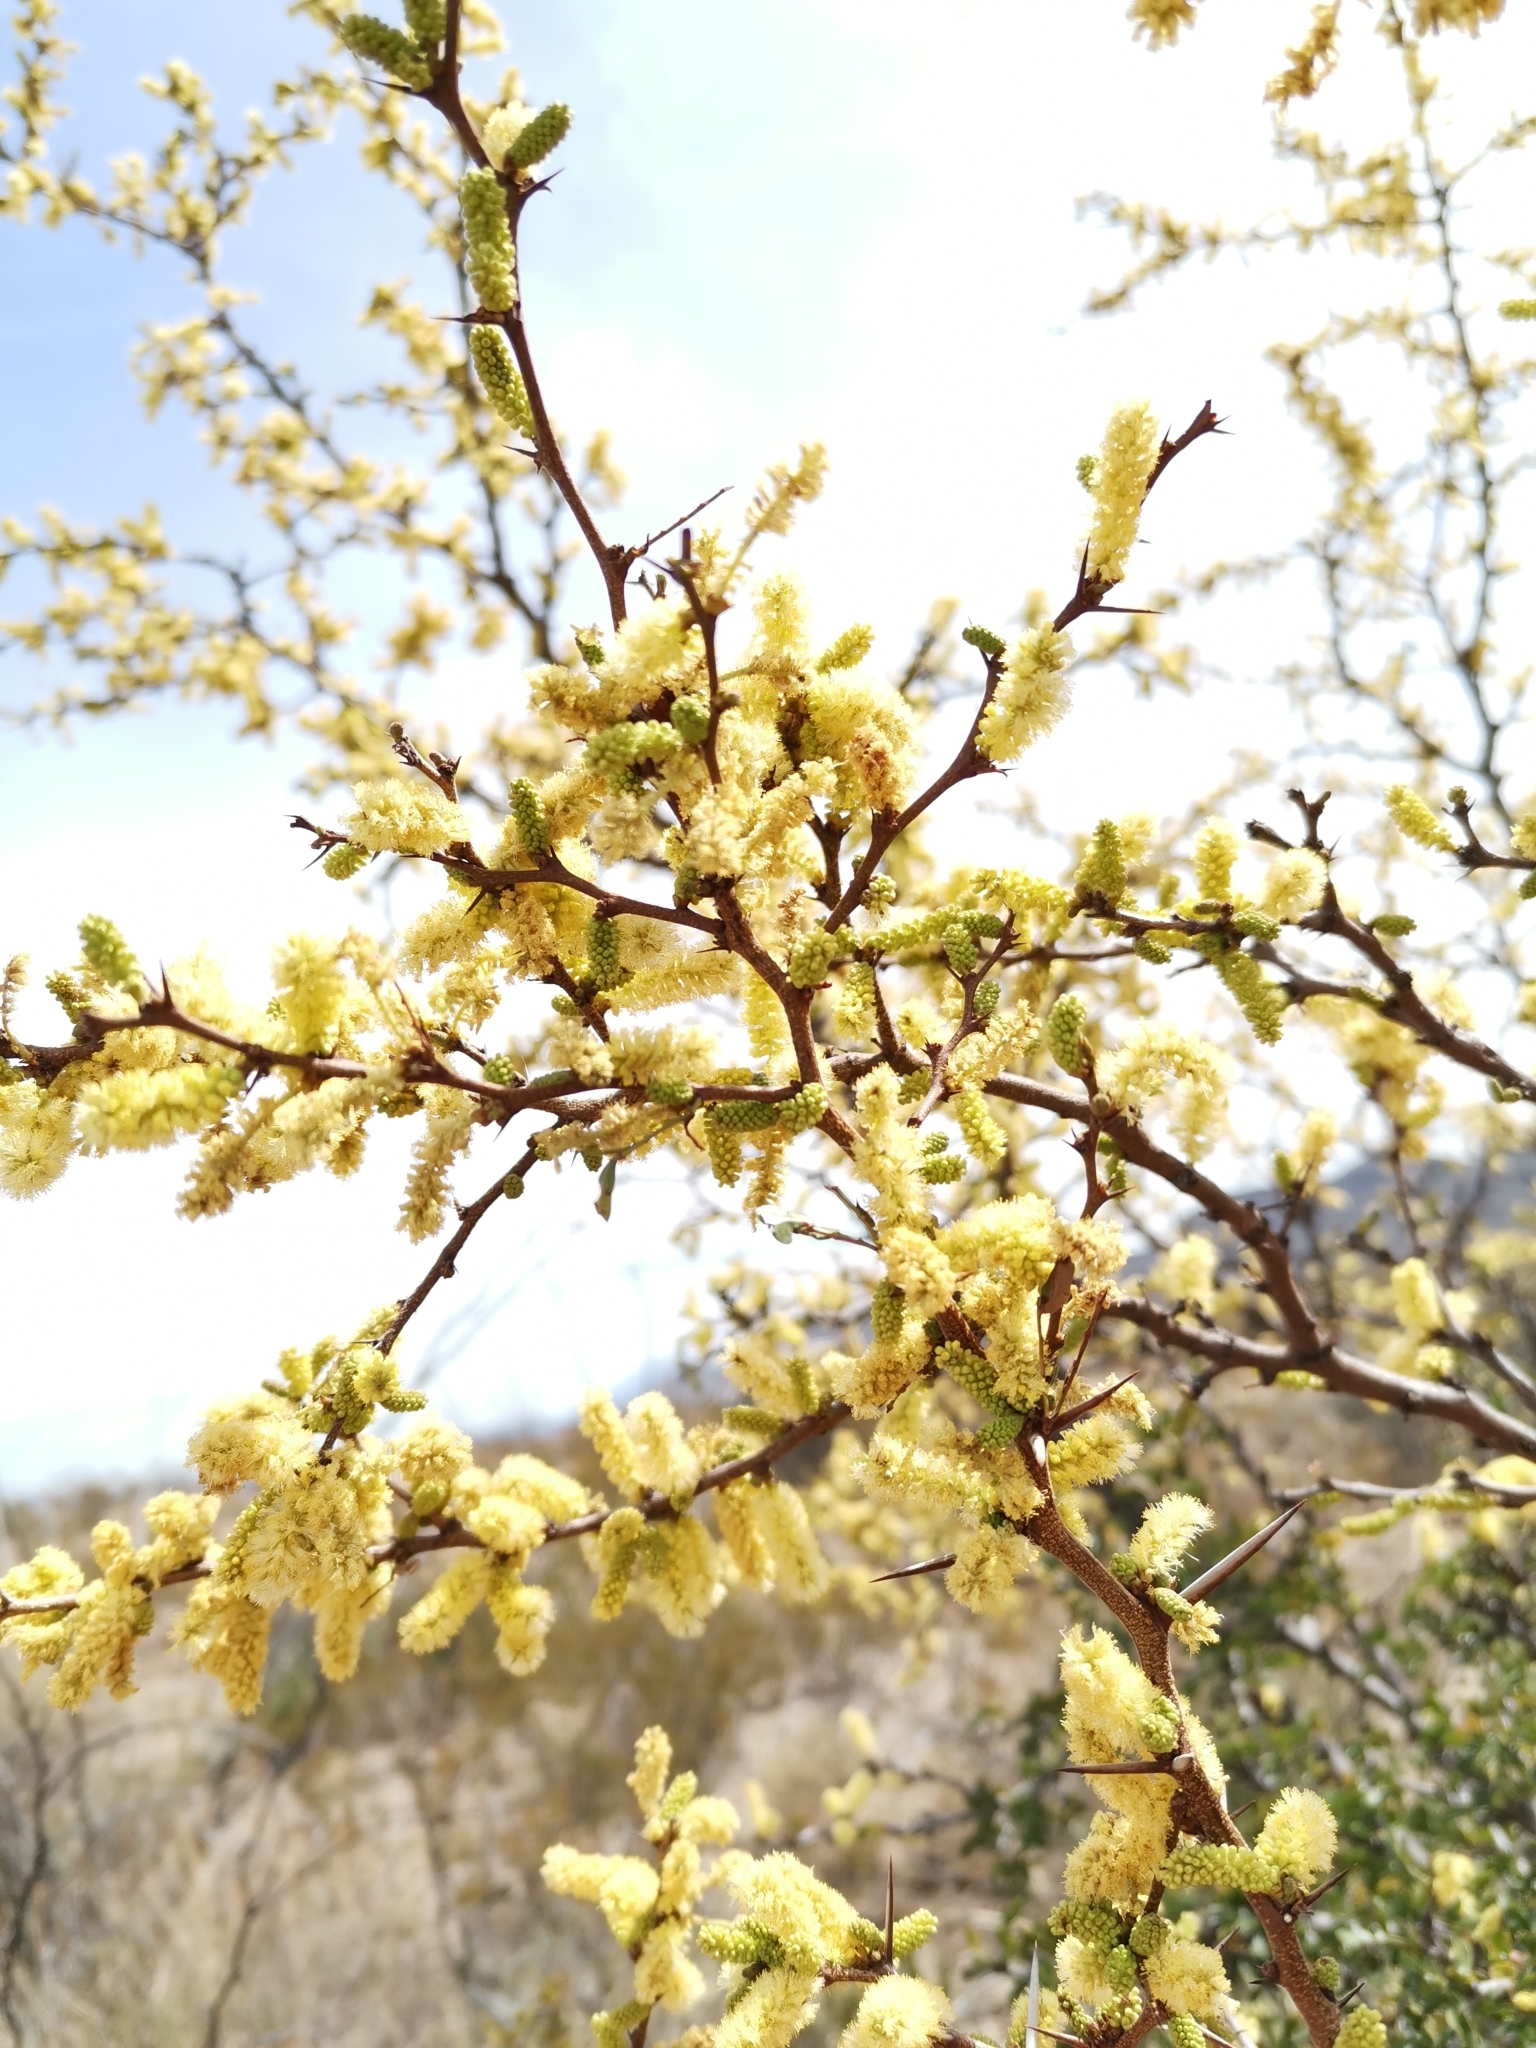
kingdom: Plantae
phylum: Tracheophyta
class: Magnoliopsida
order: Fabales
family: Fabaceae
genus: Vachellia
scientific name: Vachellia rigidula
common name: Blackbrush
